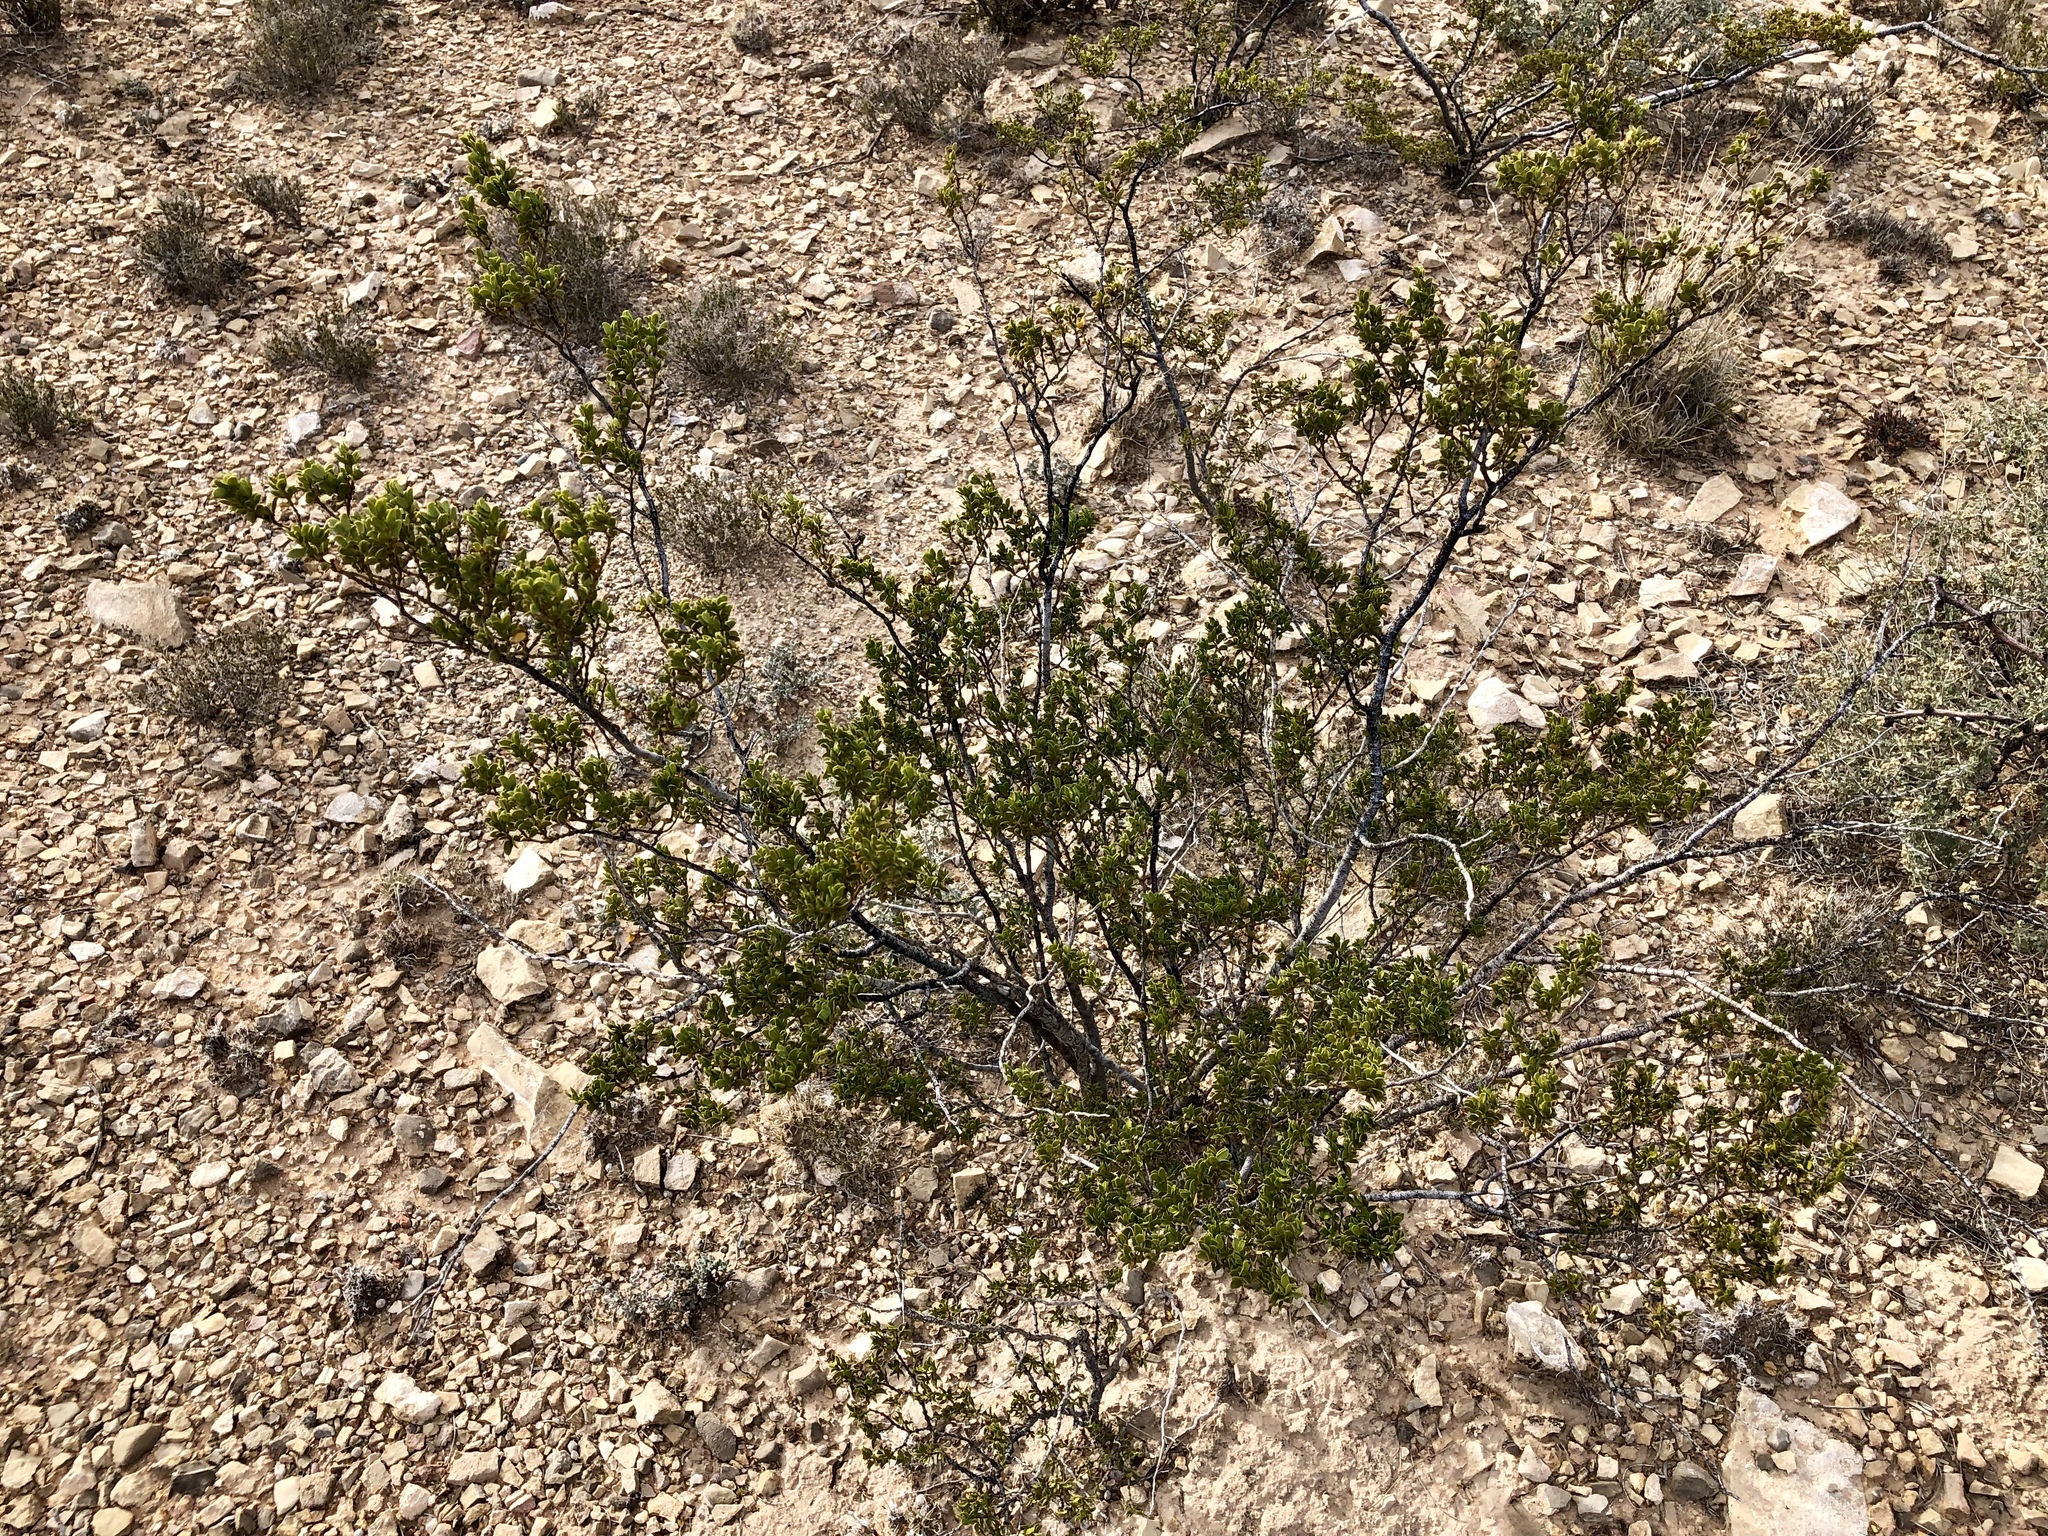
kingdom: Plantae
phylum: Tracheophyta
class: Magnoliopsida
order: Zygophyllales
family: Zygophyllaceae
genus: Larrea
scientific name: Larrea tridentata
